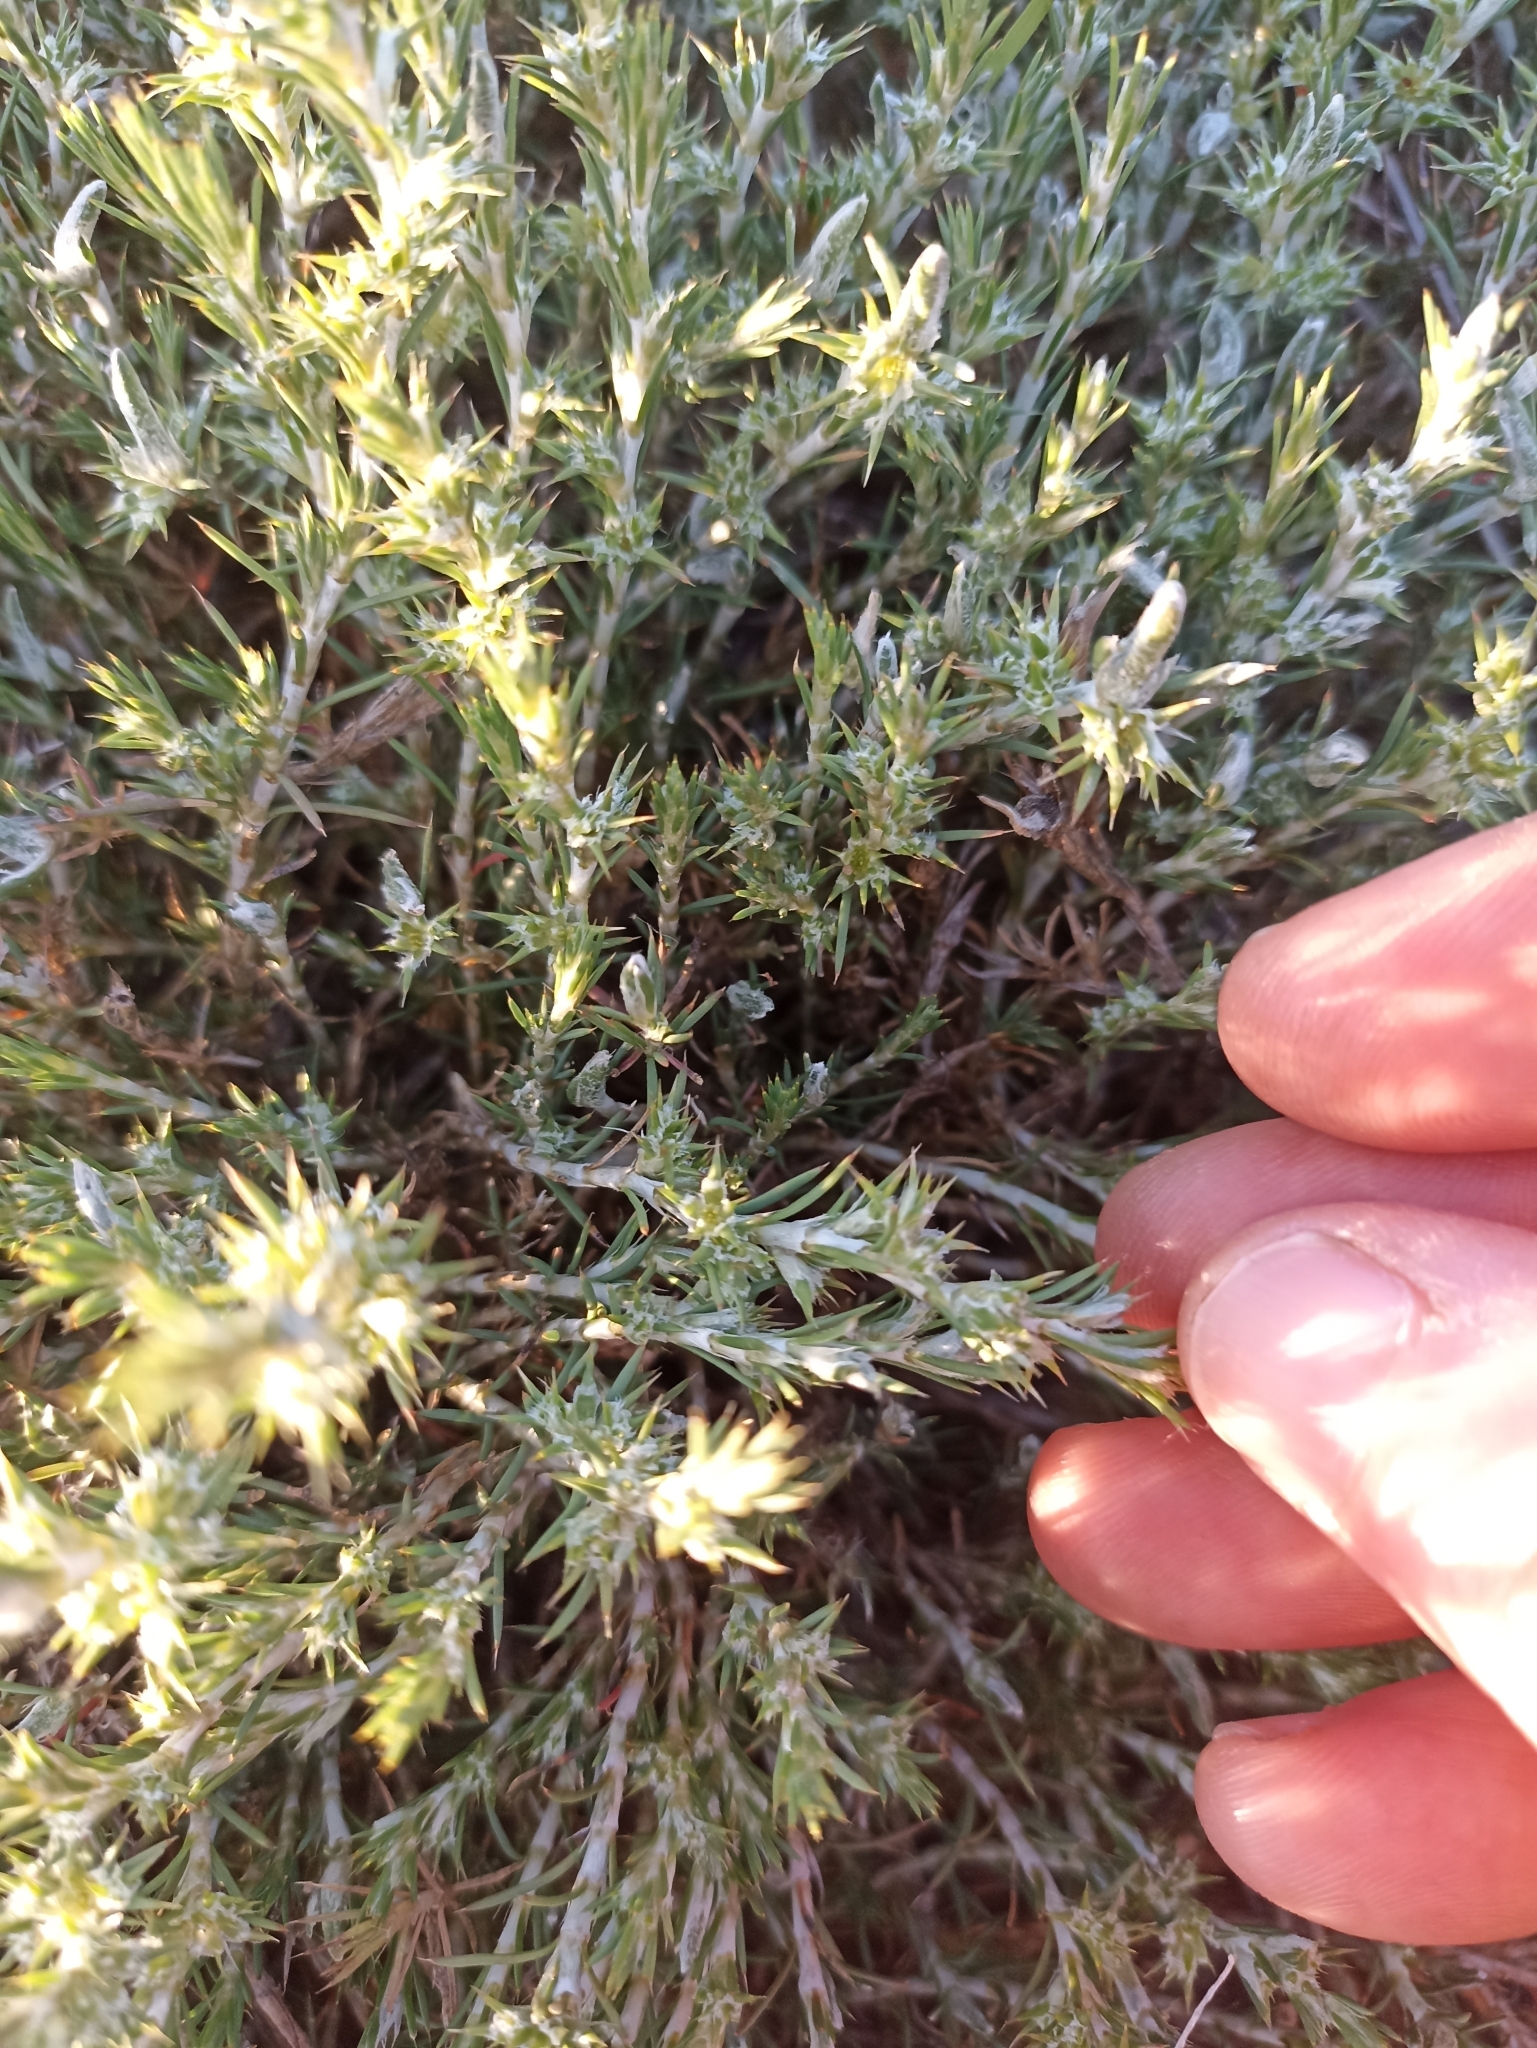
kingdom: Plantae
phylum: Tracheophyta
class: Magnoliopsida
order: Caryophyllales
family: Caryophyllaceae
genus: Cardionema
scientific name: Cardionema ramosissima
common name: Sandcarpet
